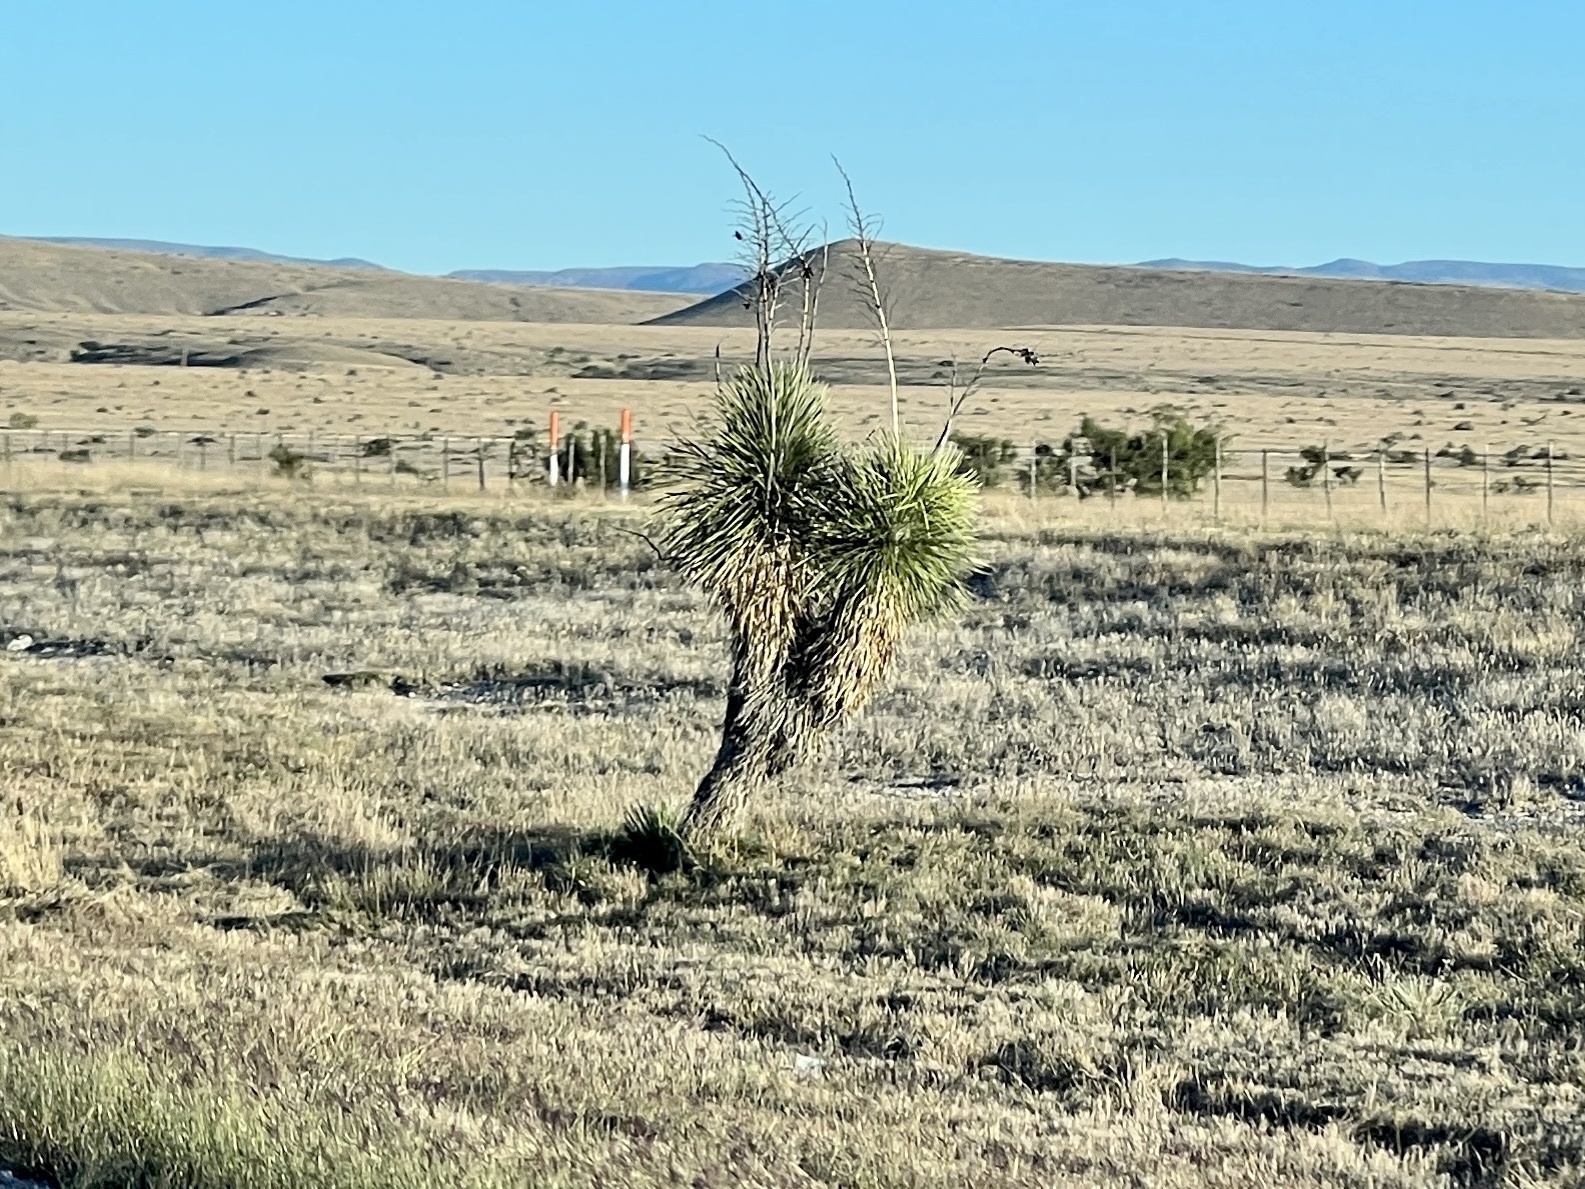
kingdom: Plantae
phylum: Tracheophyta
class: Liliopsida
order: Asparagales
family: Asparagaceae
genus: Yucca
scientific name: Yucca elata
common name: Palmella
